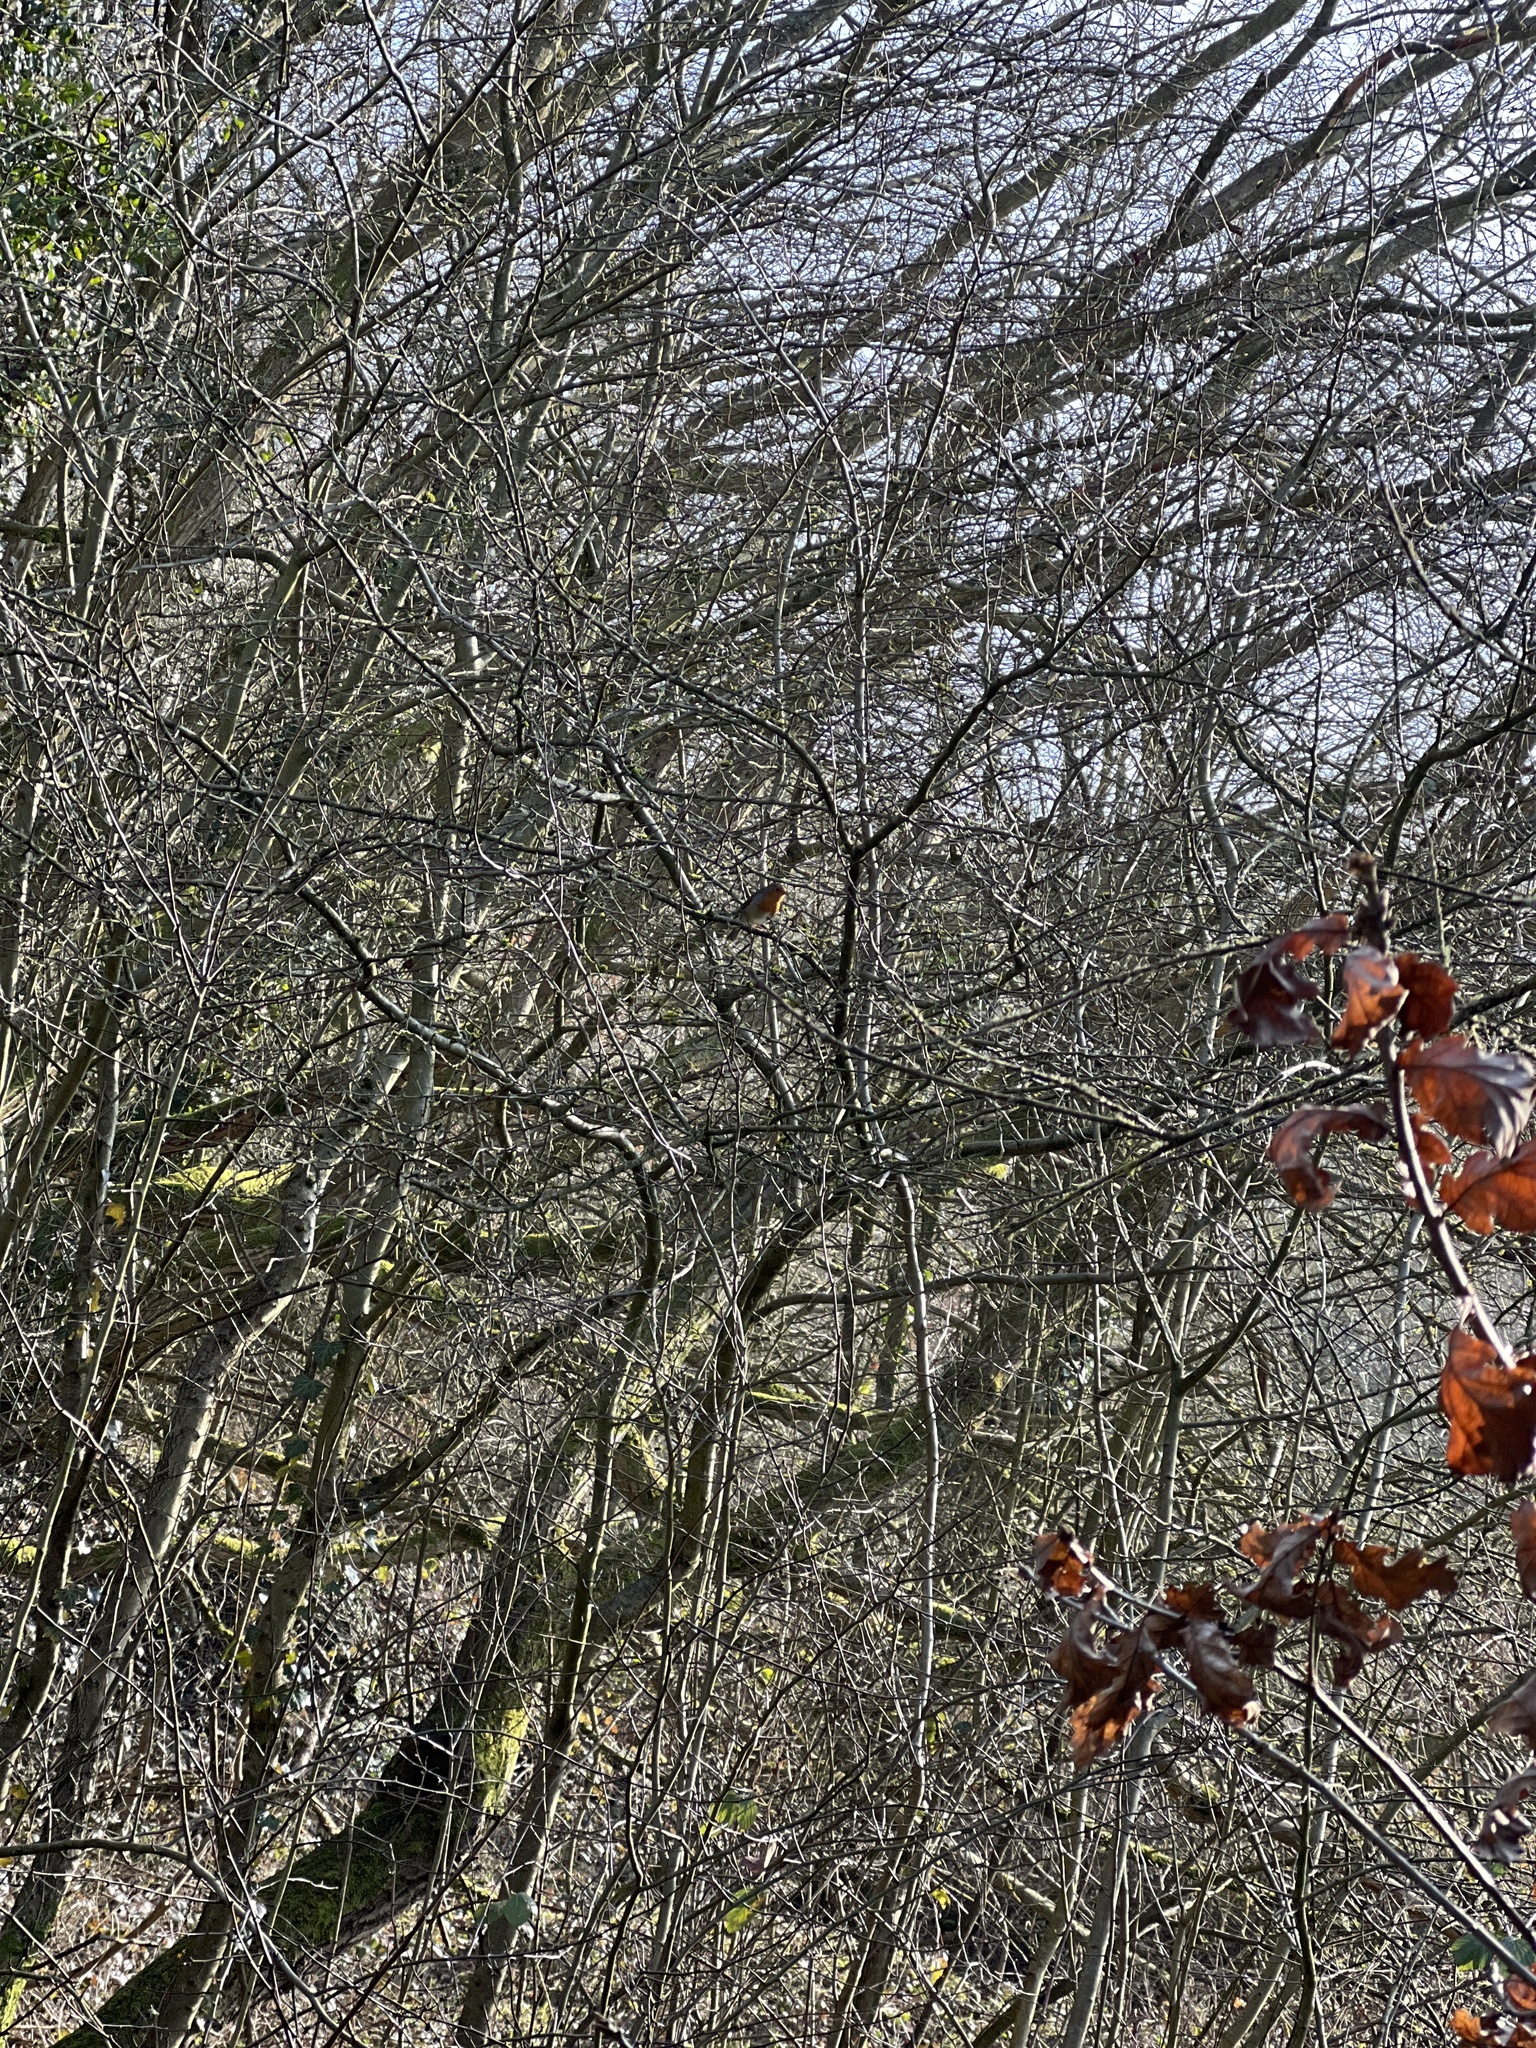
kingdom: Animalia
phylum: Chordata
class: Aves
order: Passeriformes
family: Muscicapidae
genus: Erithacus
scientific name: Erithacus rubecula
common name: European robin
